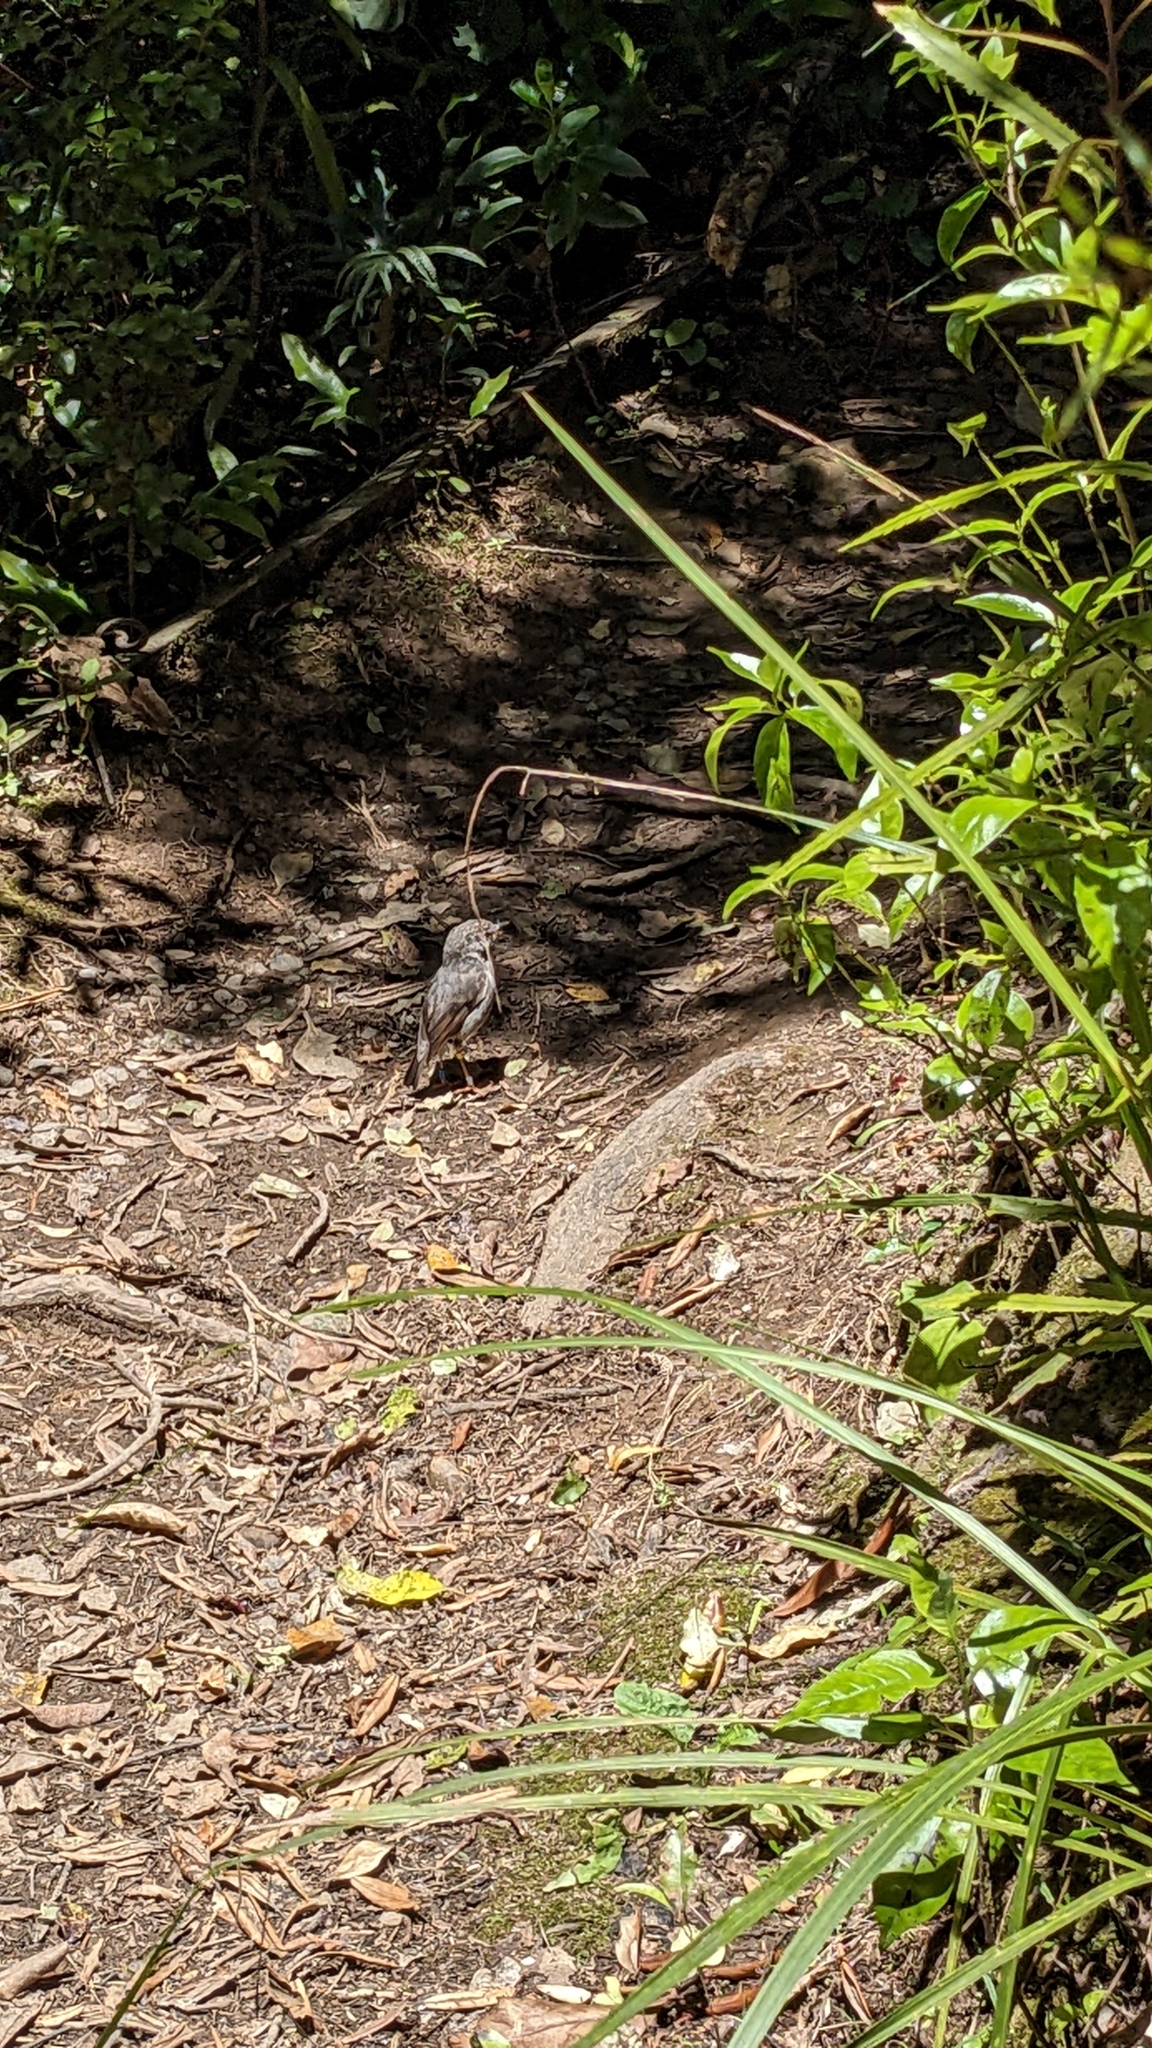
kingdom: Animalia
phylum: Chordata
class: Aves
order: Passeriformes
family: Petroicidae
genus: Petroica
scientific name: Petroica australis
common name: New zealand robin
